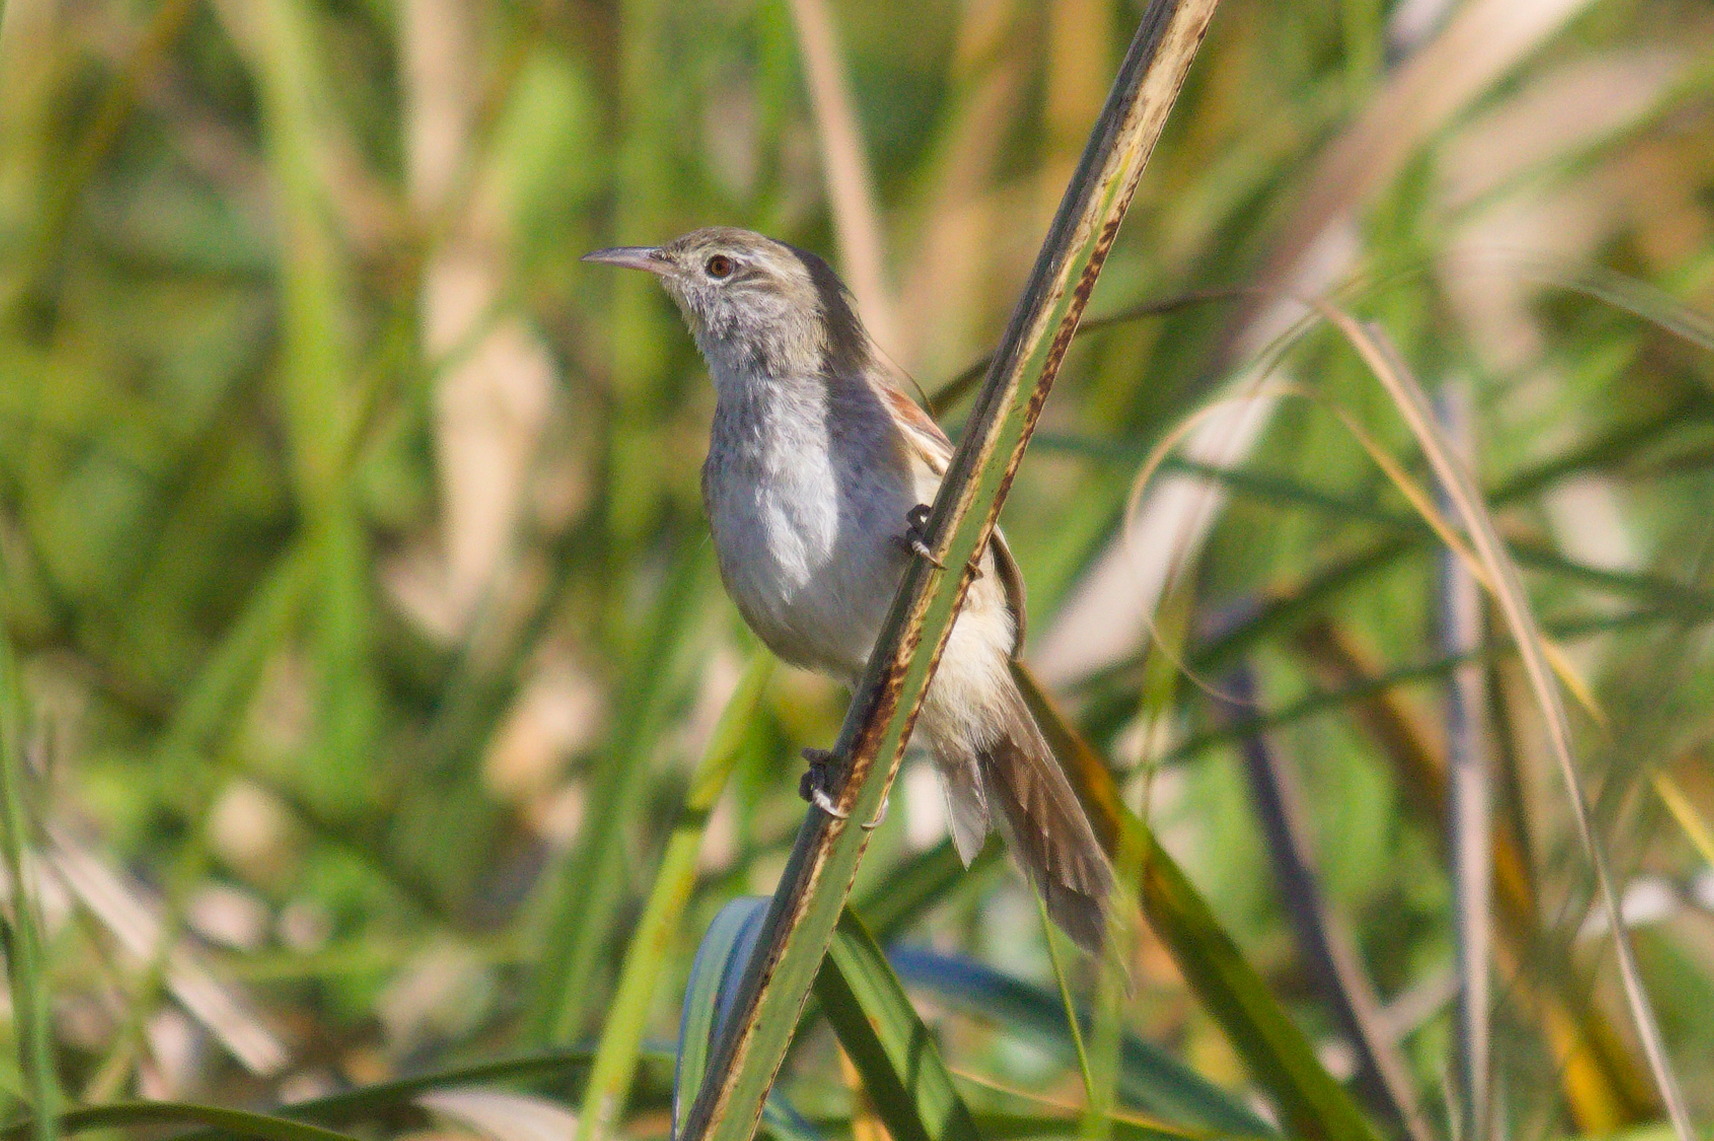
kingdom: Animalia
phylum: Chordata
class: Aves
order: Passeriformes
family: Furnariidae
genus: Cranioleuca
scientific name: Cranioleuca sulphurifera
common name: Sulphur-bearded spinetail
